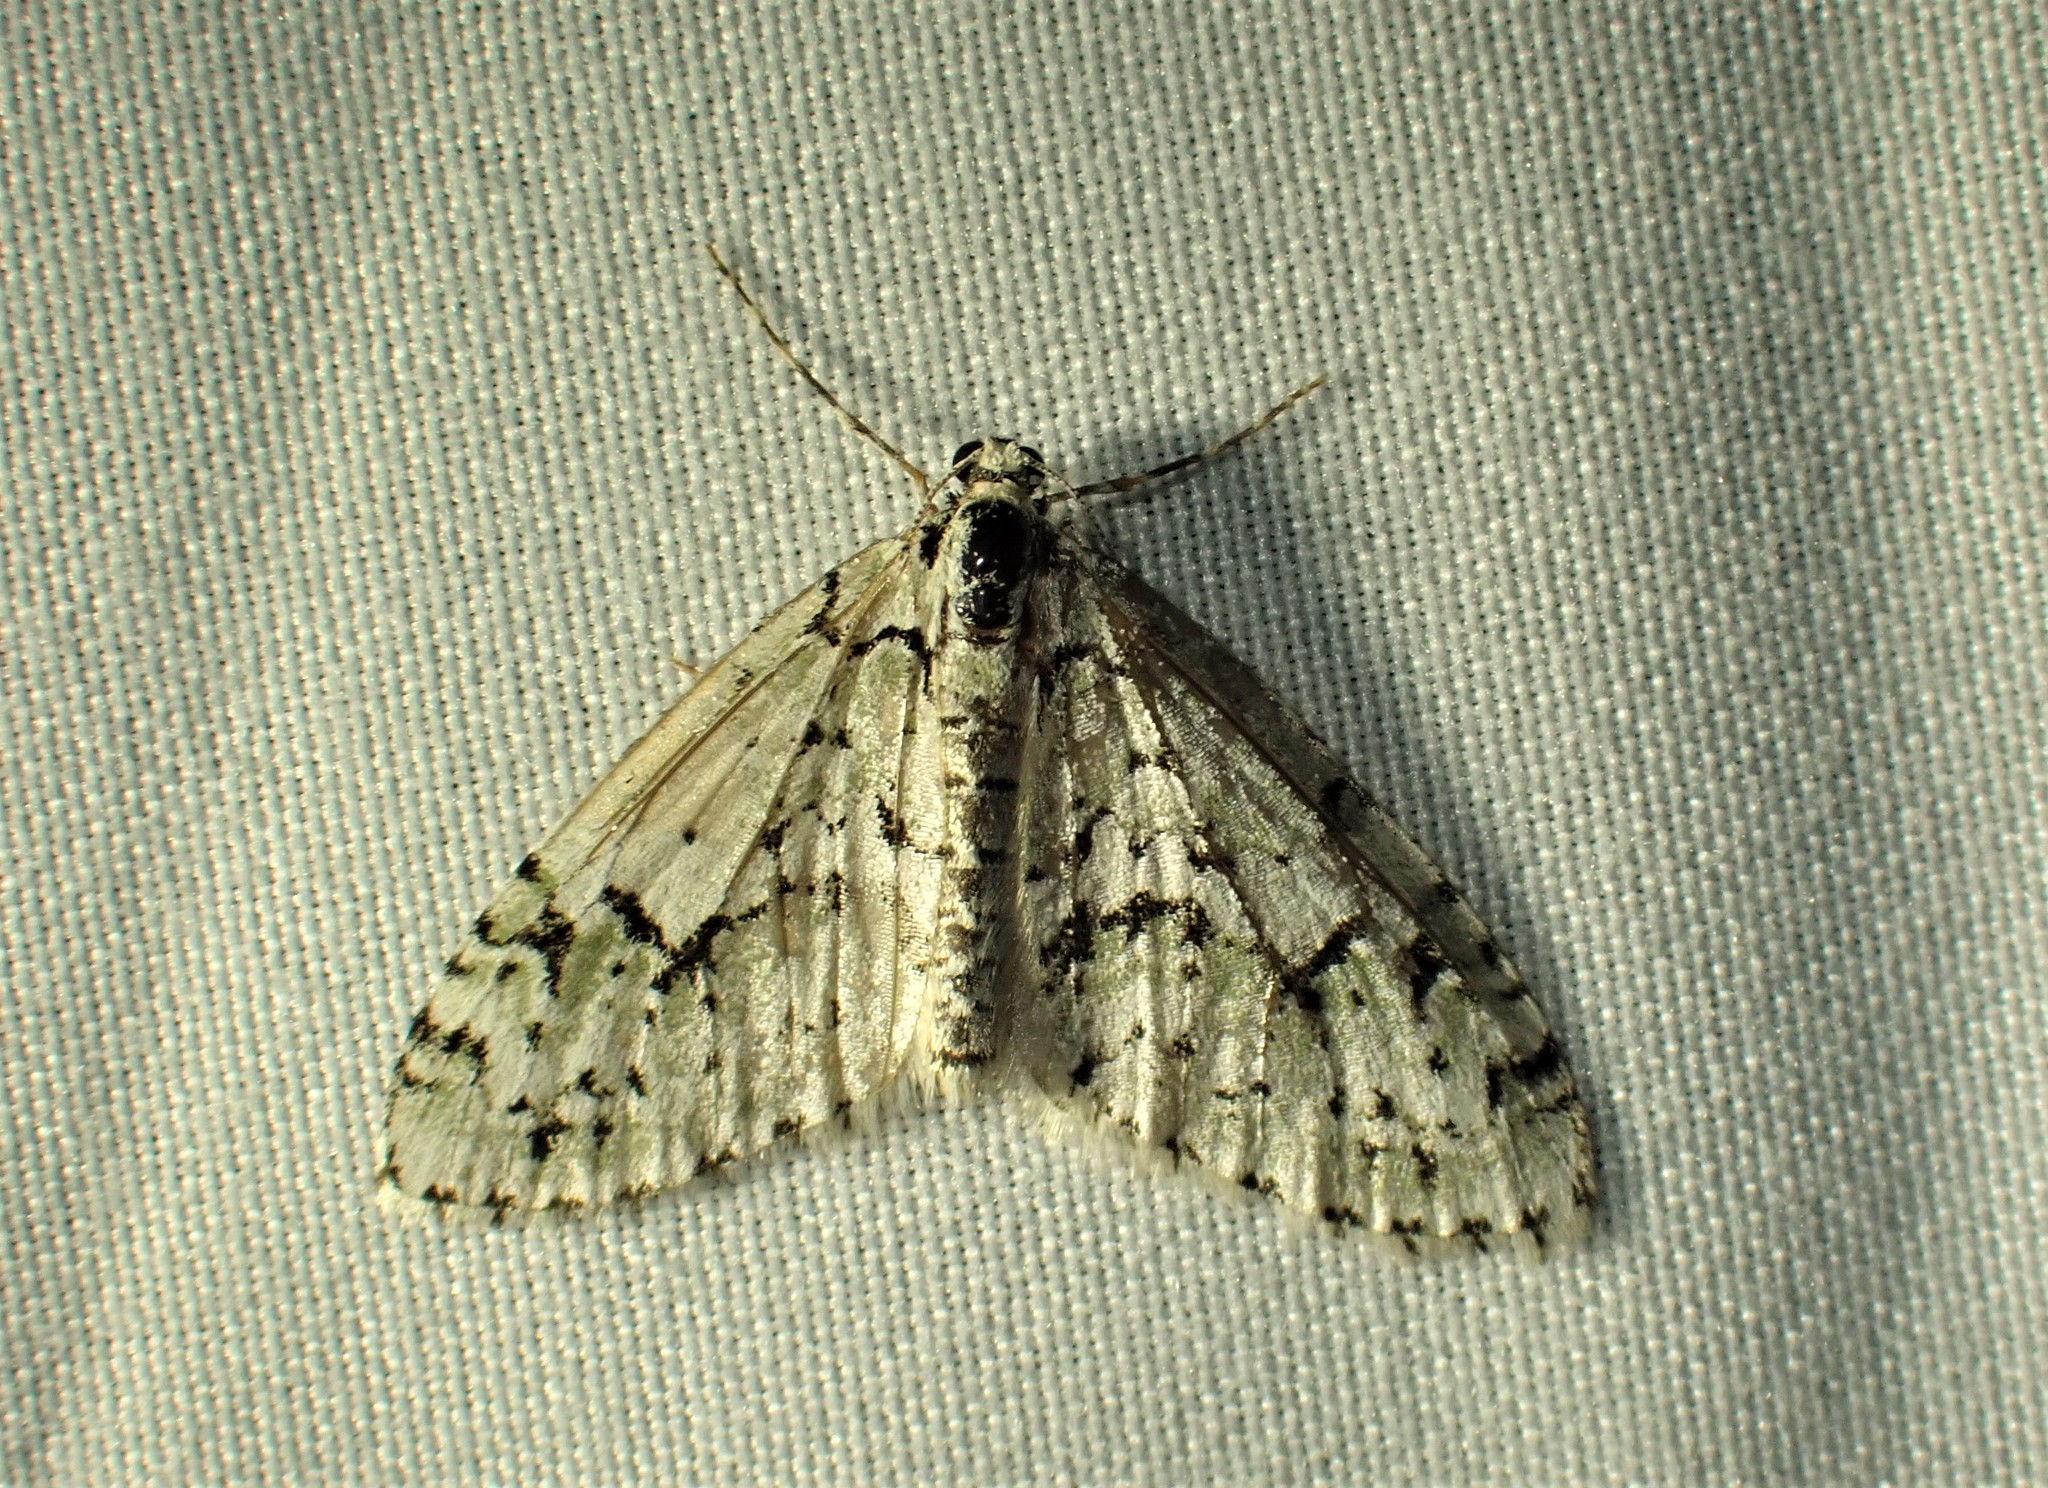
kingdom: Animalia
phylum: Arthropoda
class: Insecta
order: Lepidoptera
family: Geometridae
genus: Cladara
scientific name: Cladara atroliturata
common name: Scribbler
